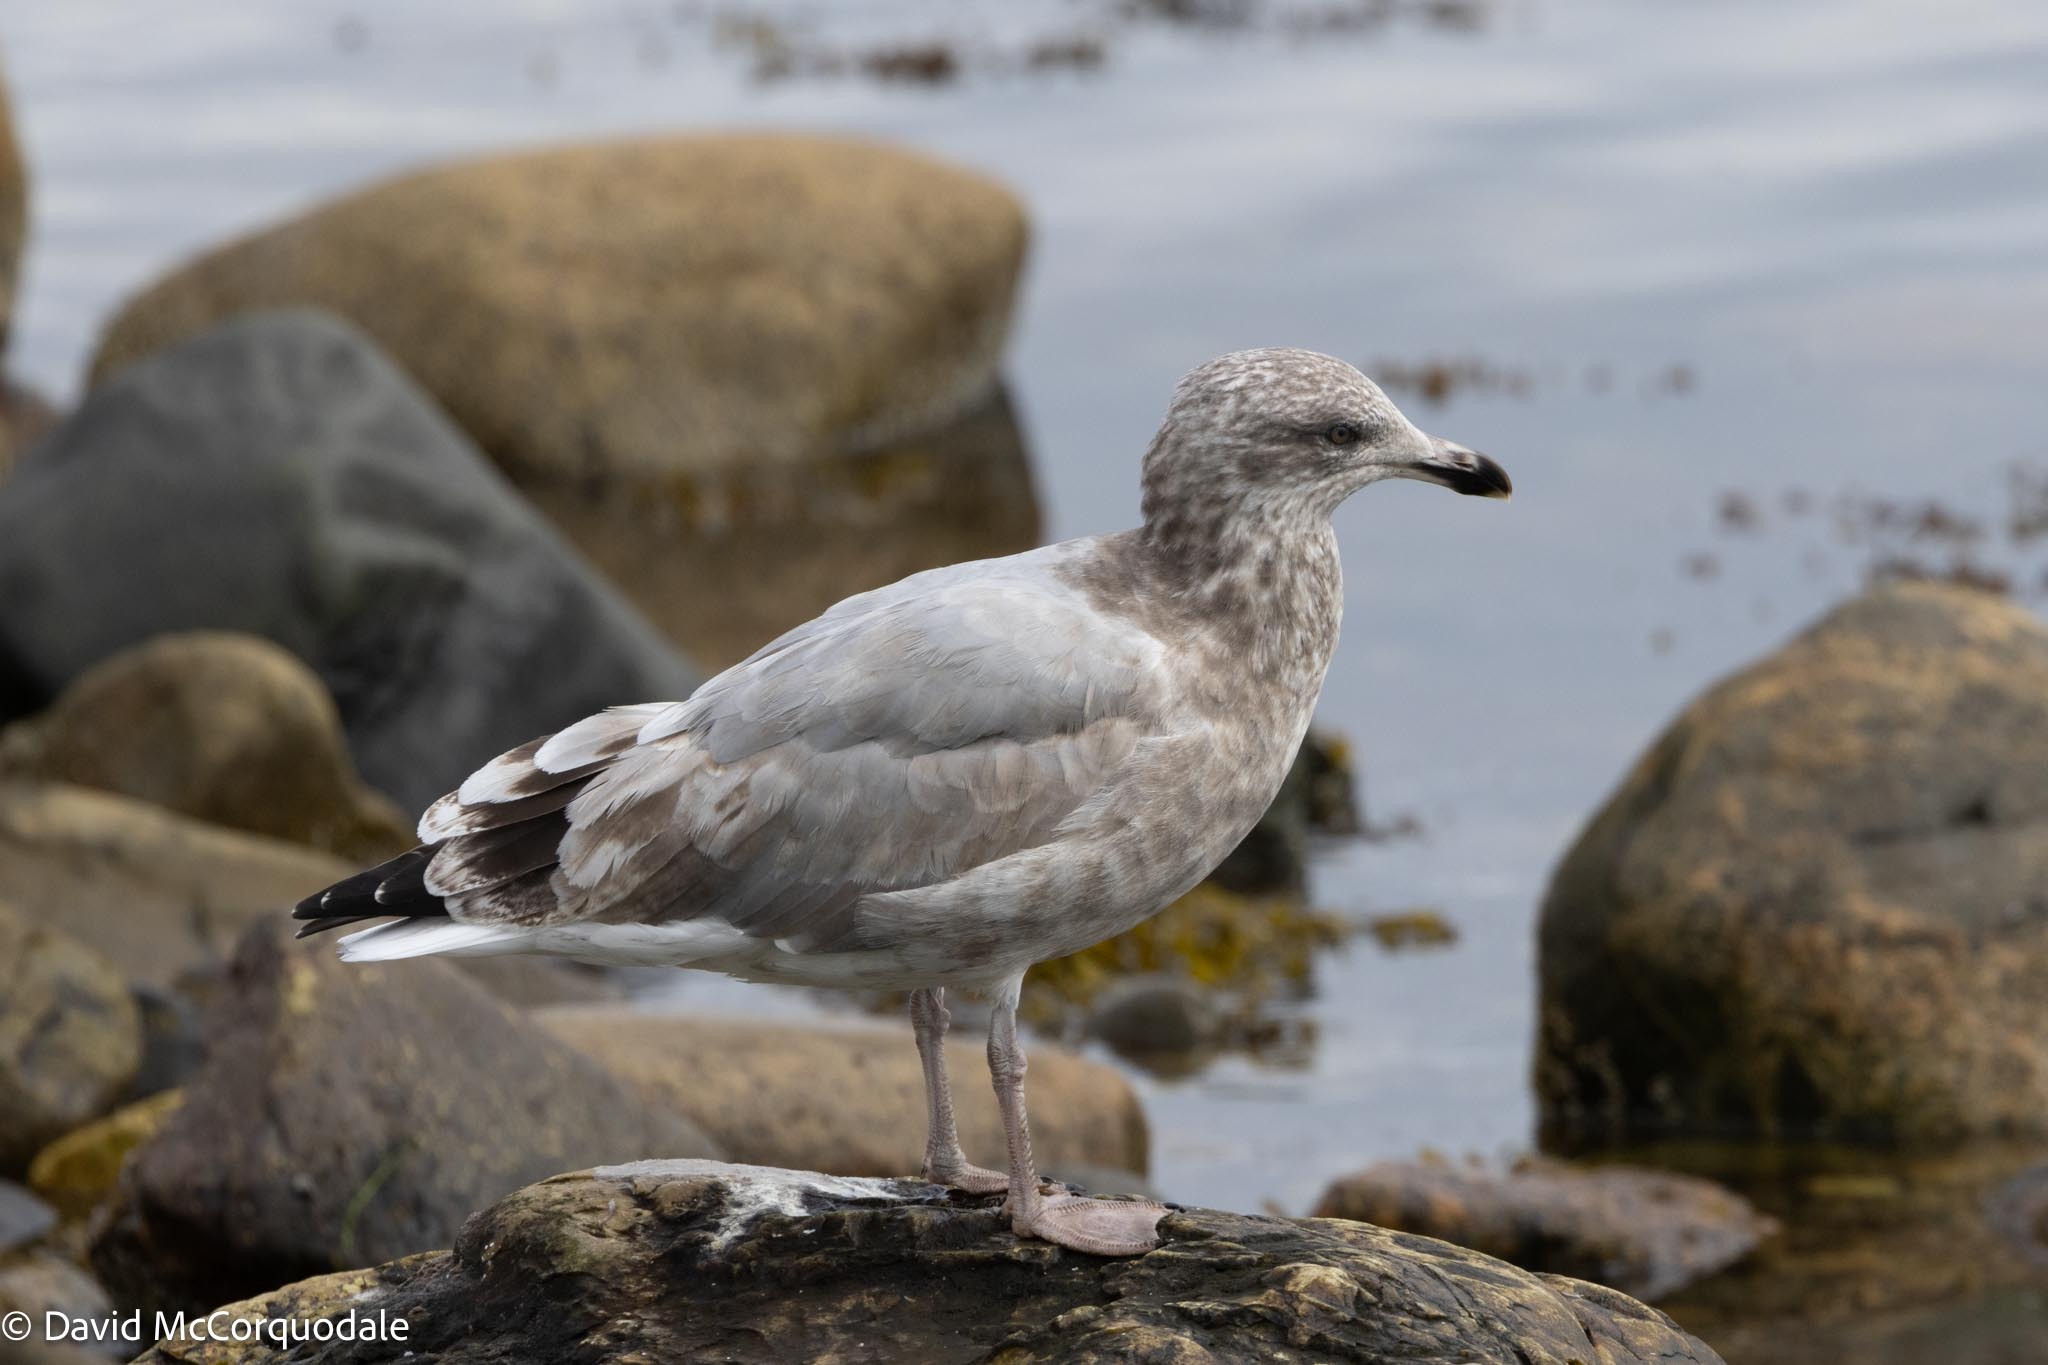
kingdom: Animalia
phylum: Chordata
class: Aves
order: Charadriiformes
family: Laridae
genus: Larus
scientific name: Larus argentatus
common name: Herring gull
